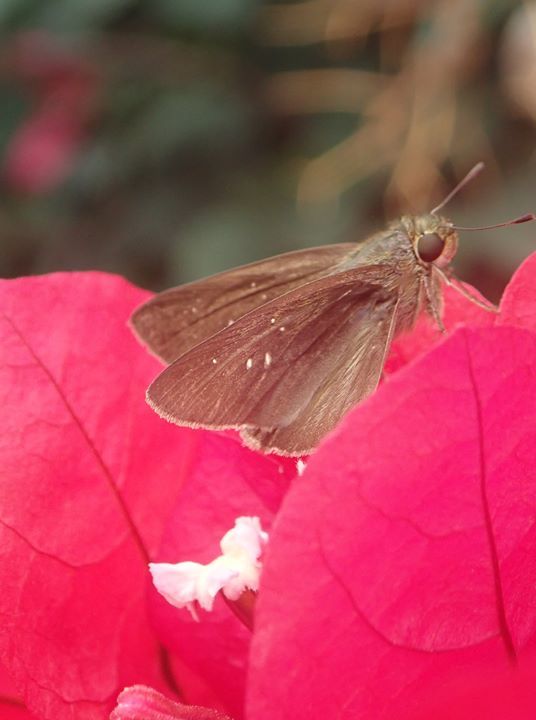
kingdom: Animalia
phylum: Arthropoda
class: Insecta
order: Lepidoptera
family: Hesperiidae
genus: Pelopidas
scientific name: Pelopidas agna
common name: Little branded swift
